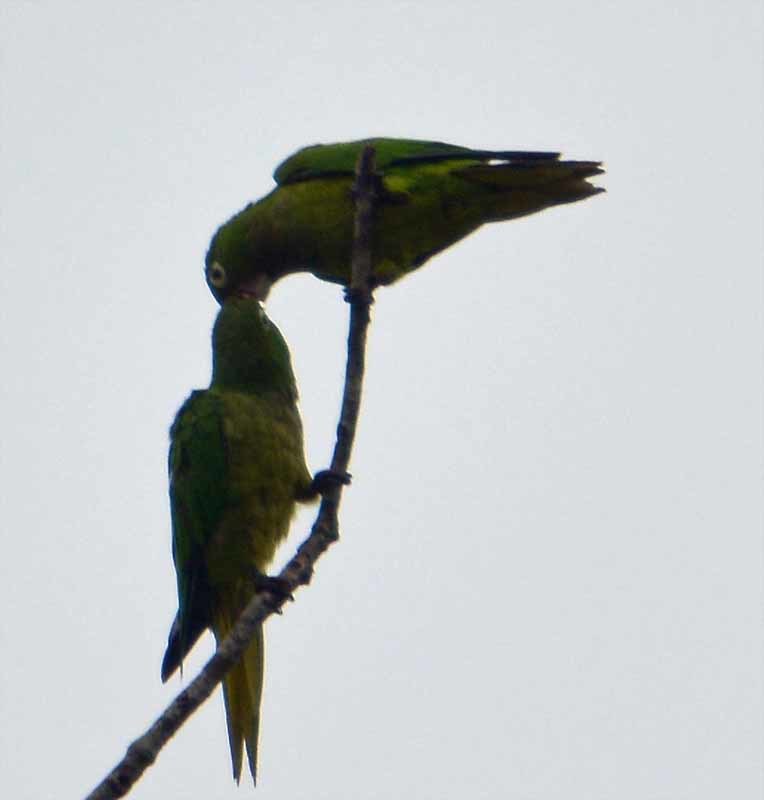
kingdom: Animalia
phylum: Chordata
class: Aves
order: Psittaciformes
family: Psittacidae
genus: Aratinga
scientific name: Aratinga nana
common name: Olive-throated parakeet
